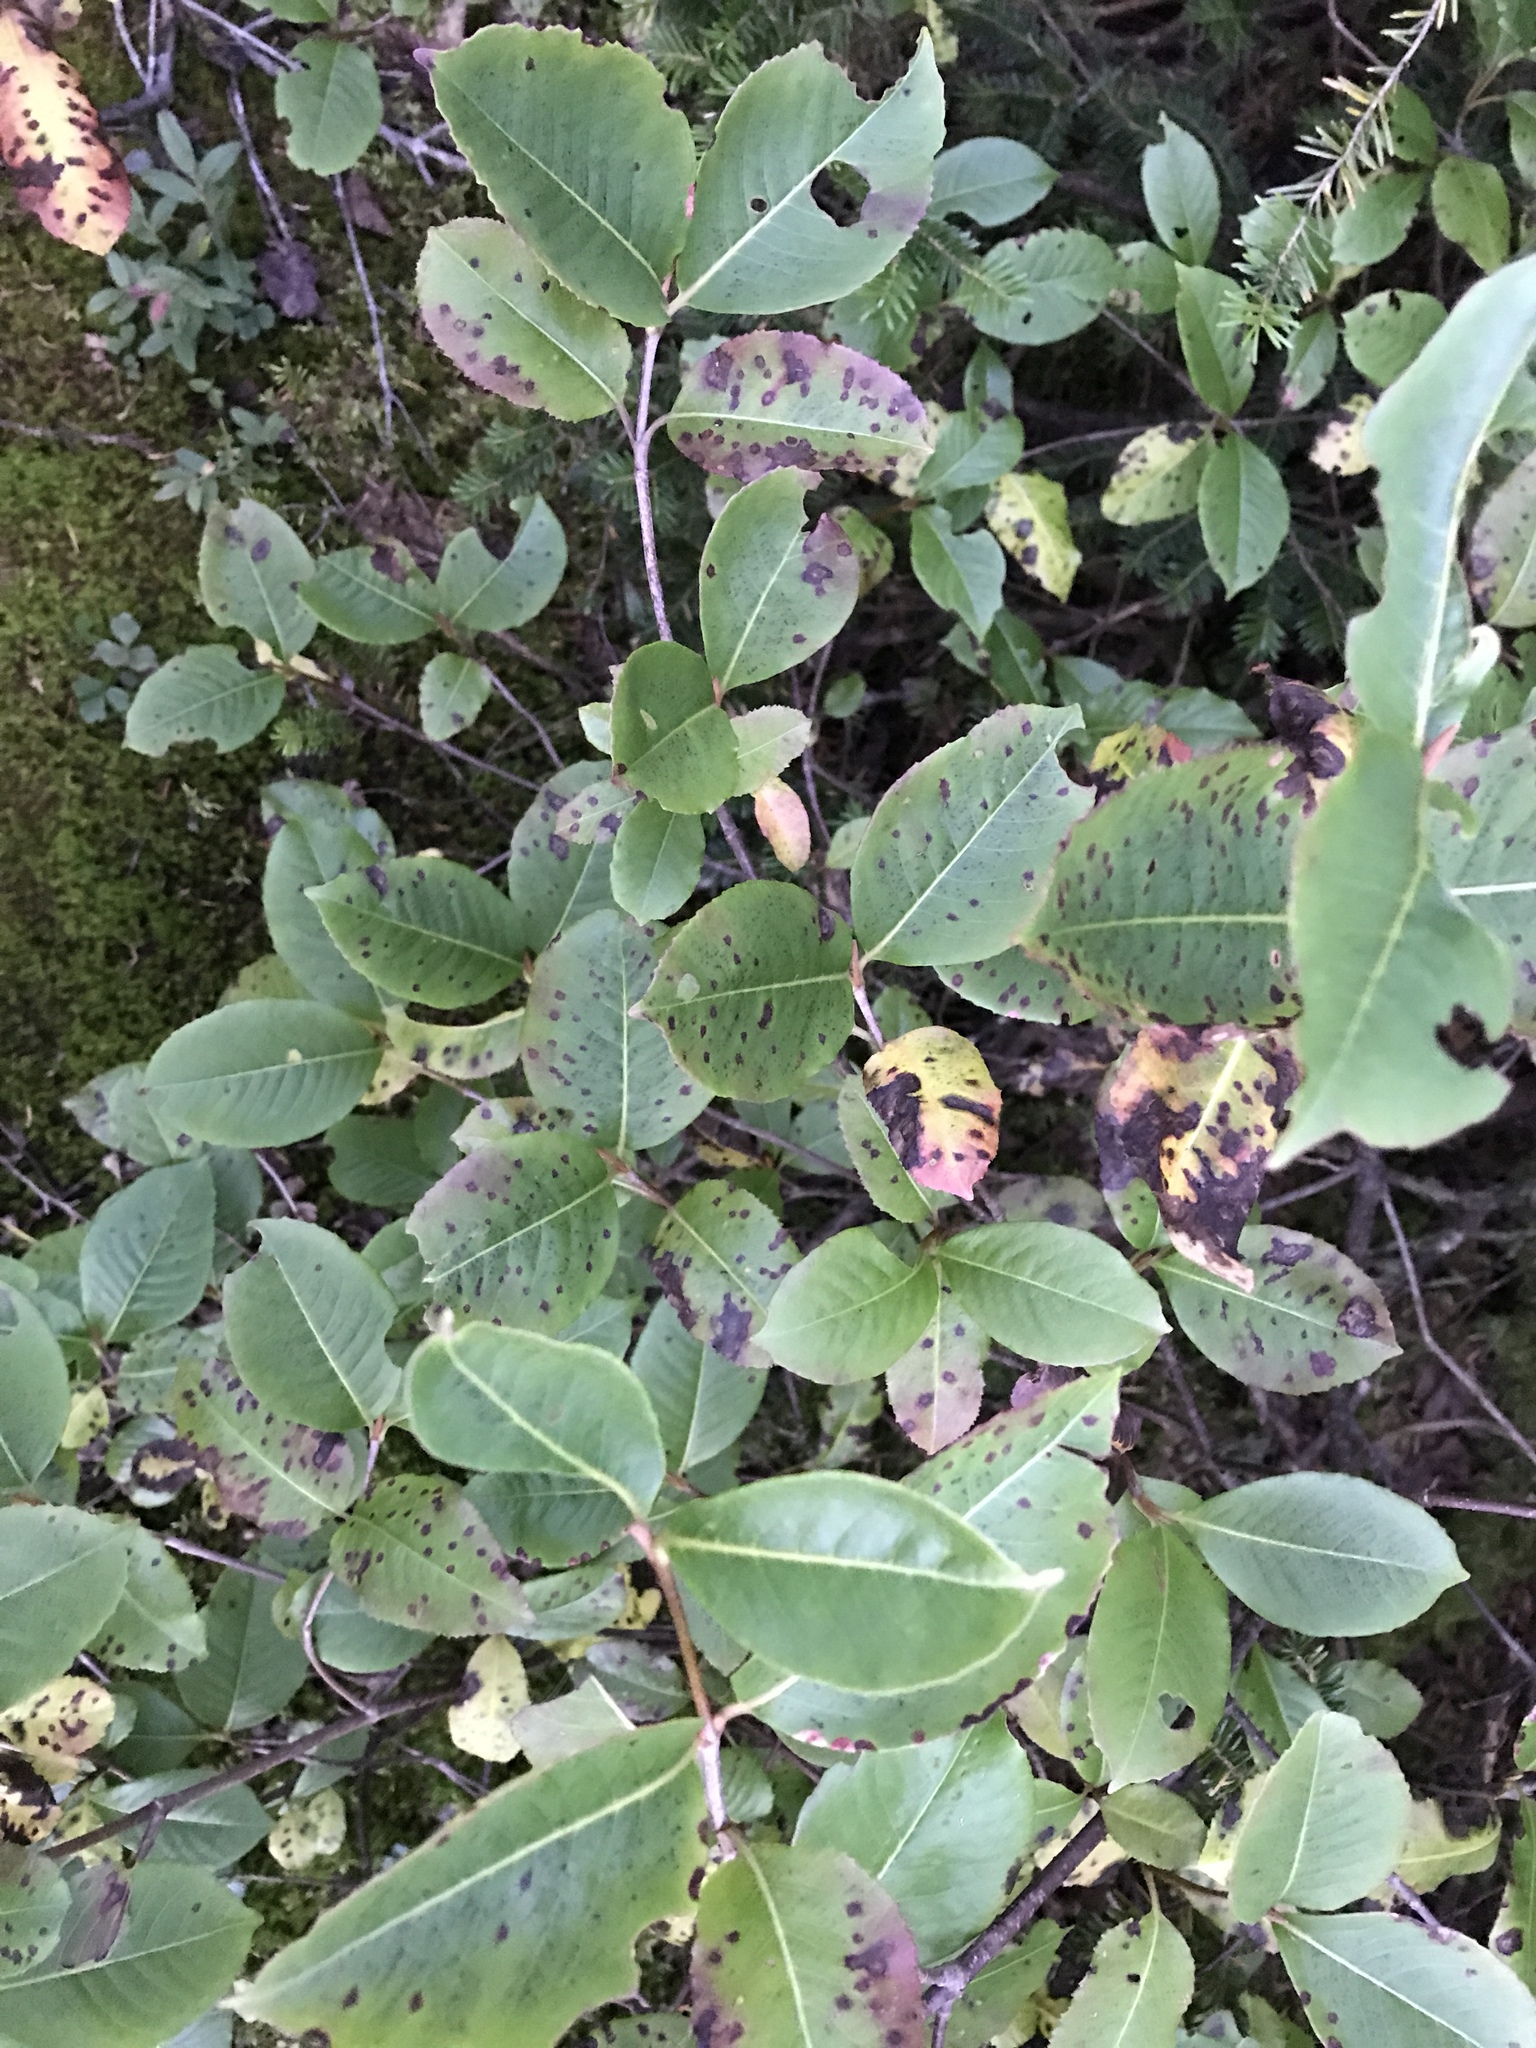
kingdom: Plantae
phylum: Tracheophyta
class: Magnoliopsida
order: Dipsacales
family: Viburnaceae
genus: Viburnum
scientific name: Viburnum cassinoides
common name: Swamp haw
